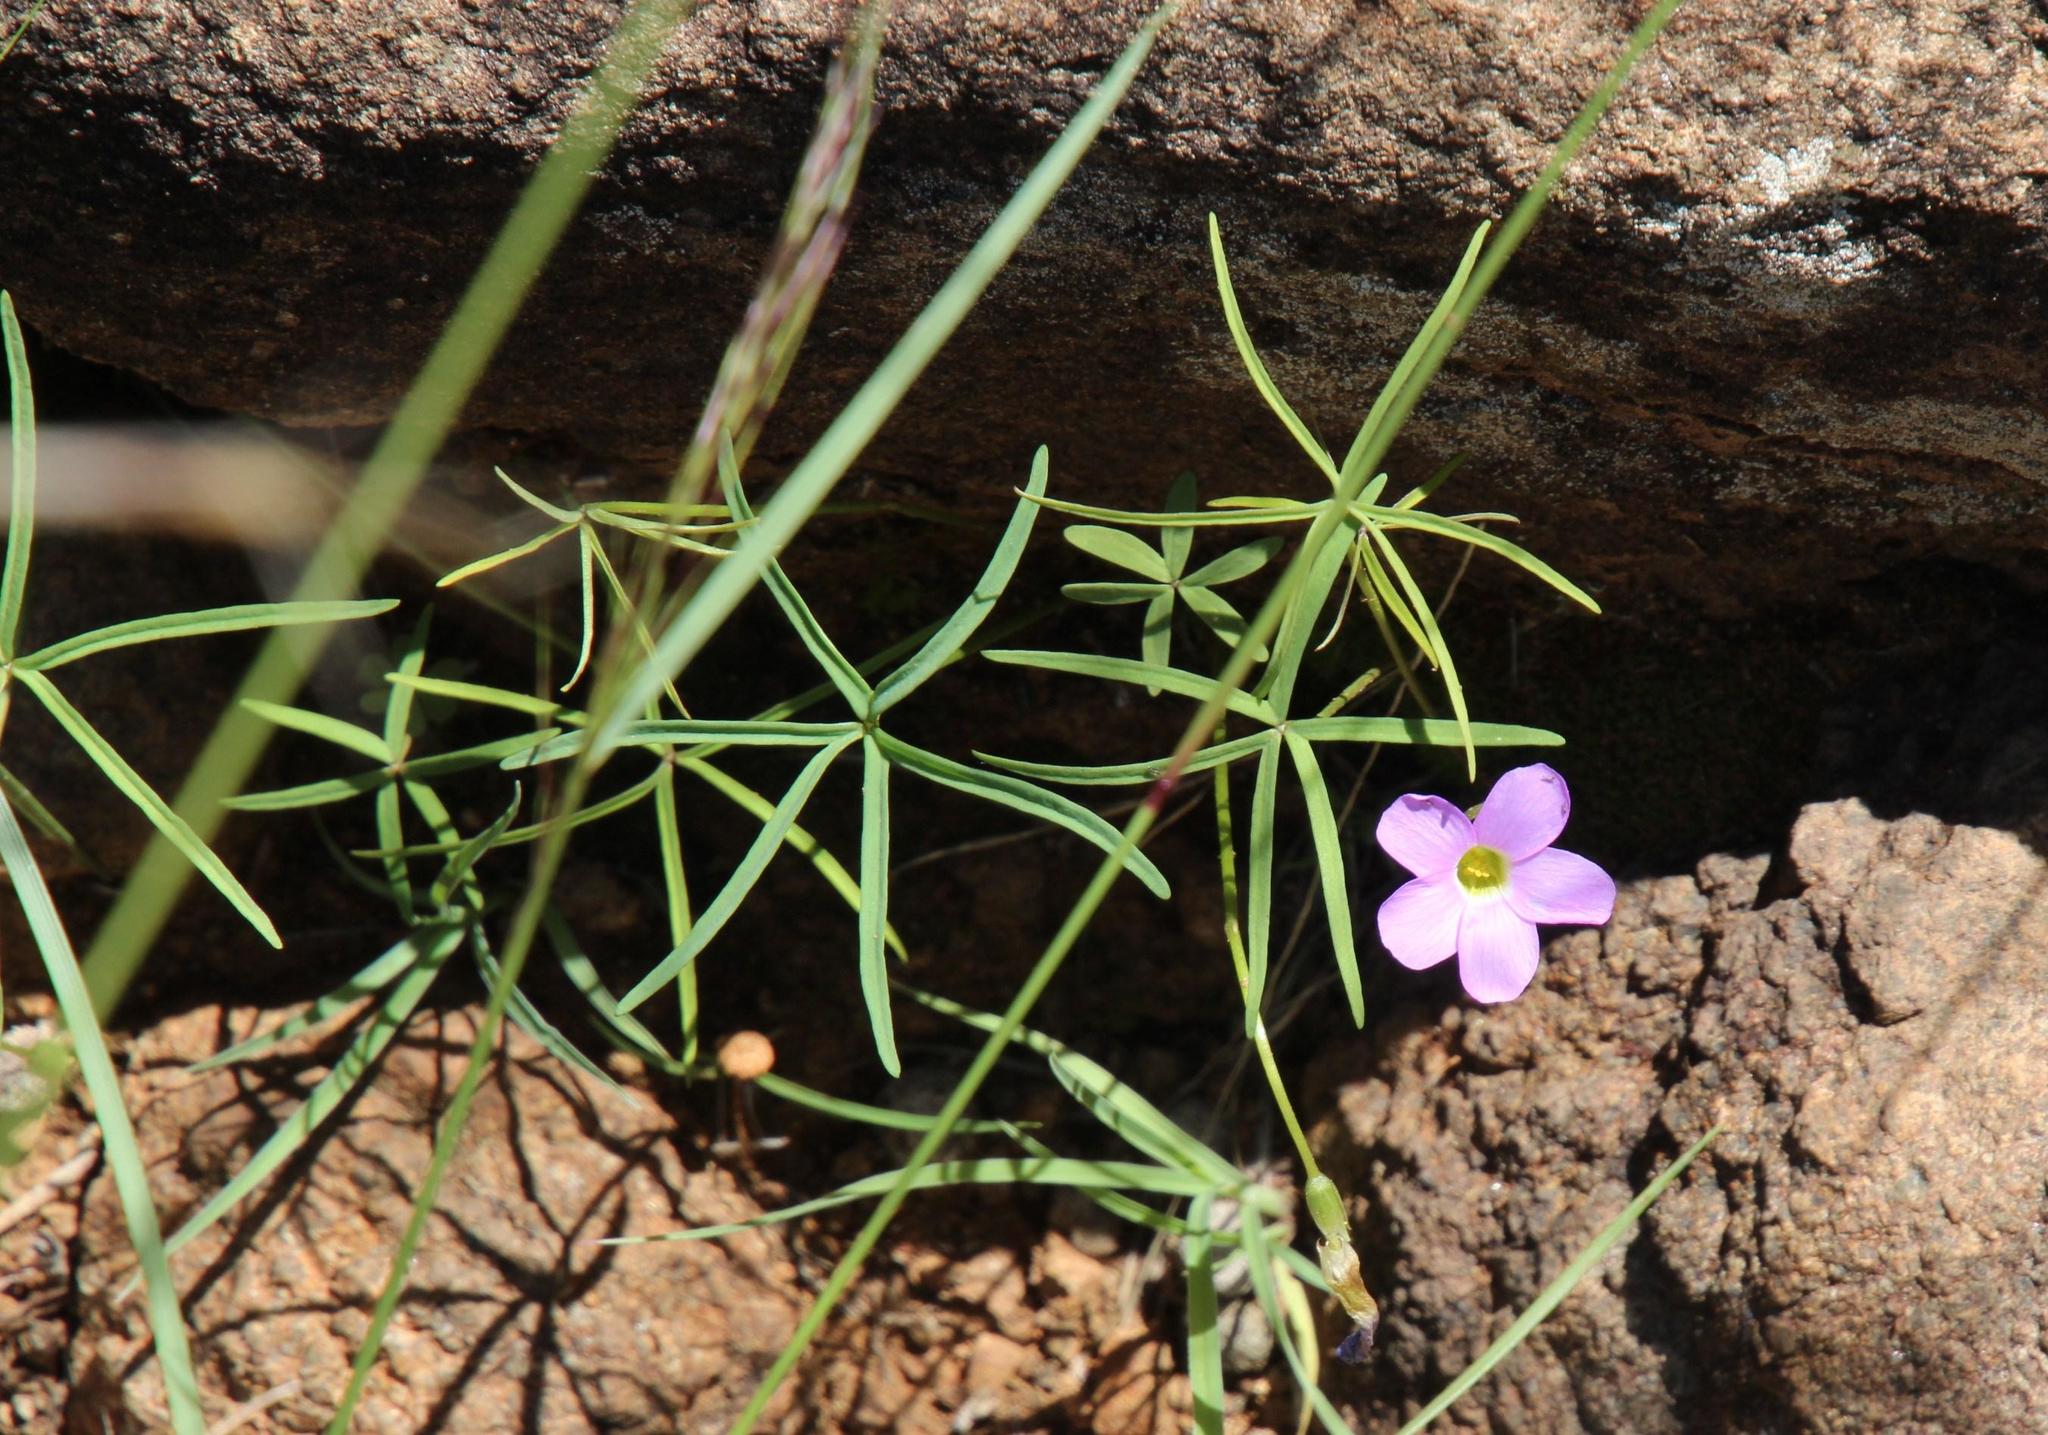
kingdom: Plantae
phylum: Tracheophyta
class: Magnoliopsida
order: Oxalidales
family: Oxalidaceae
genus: Oxalis
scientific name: Oxalis smithiana
